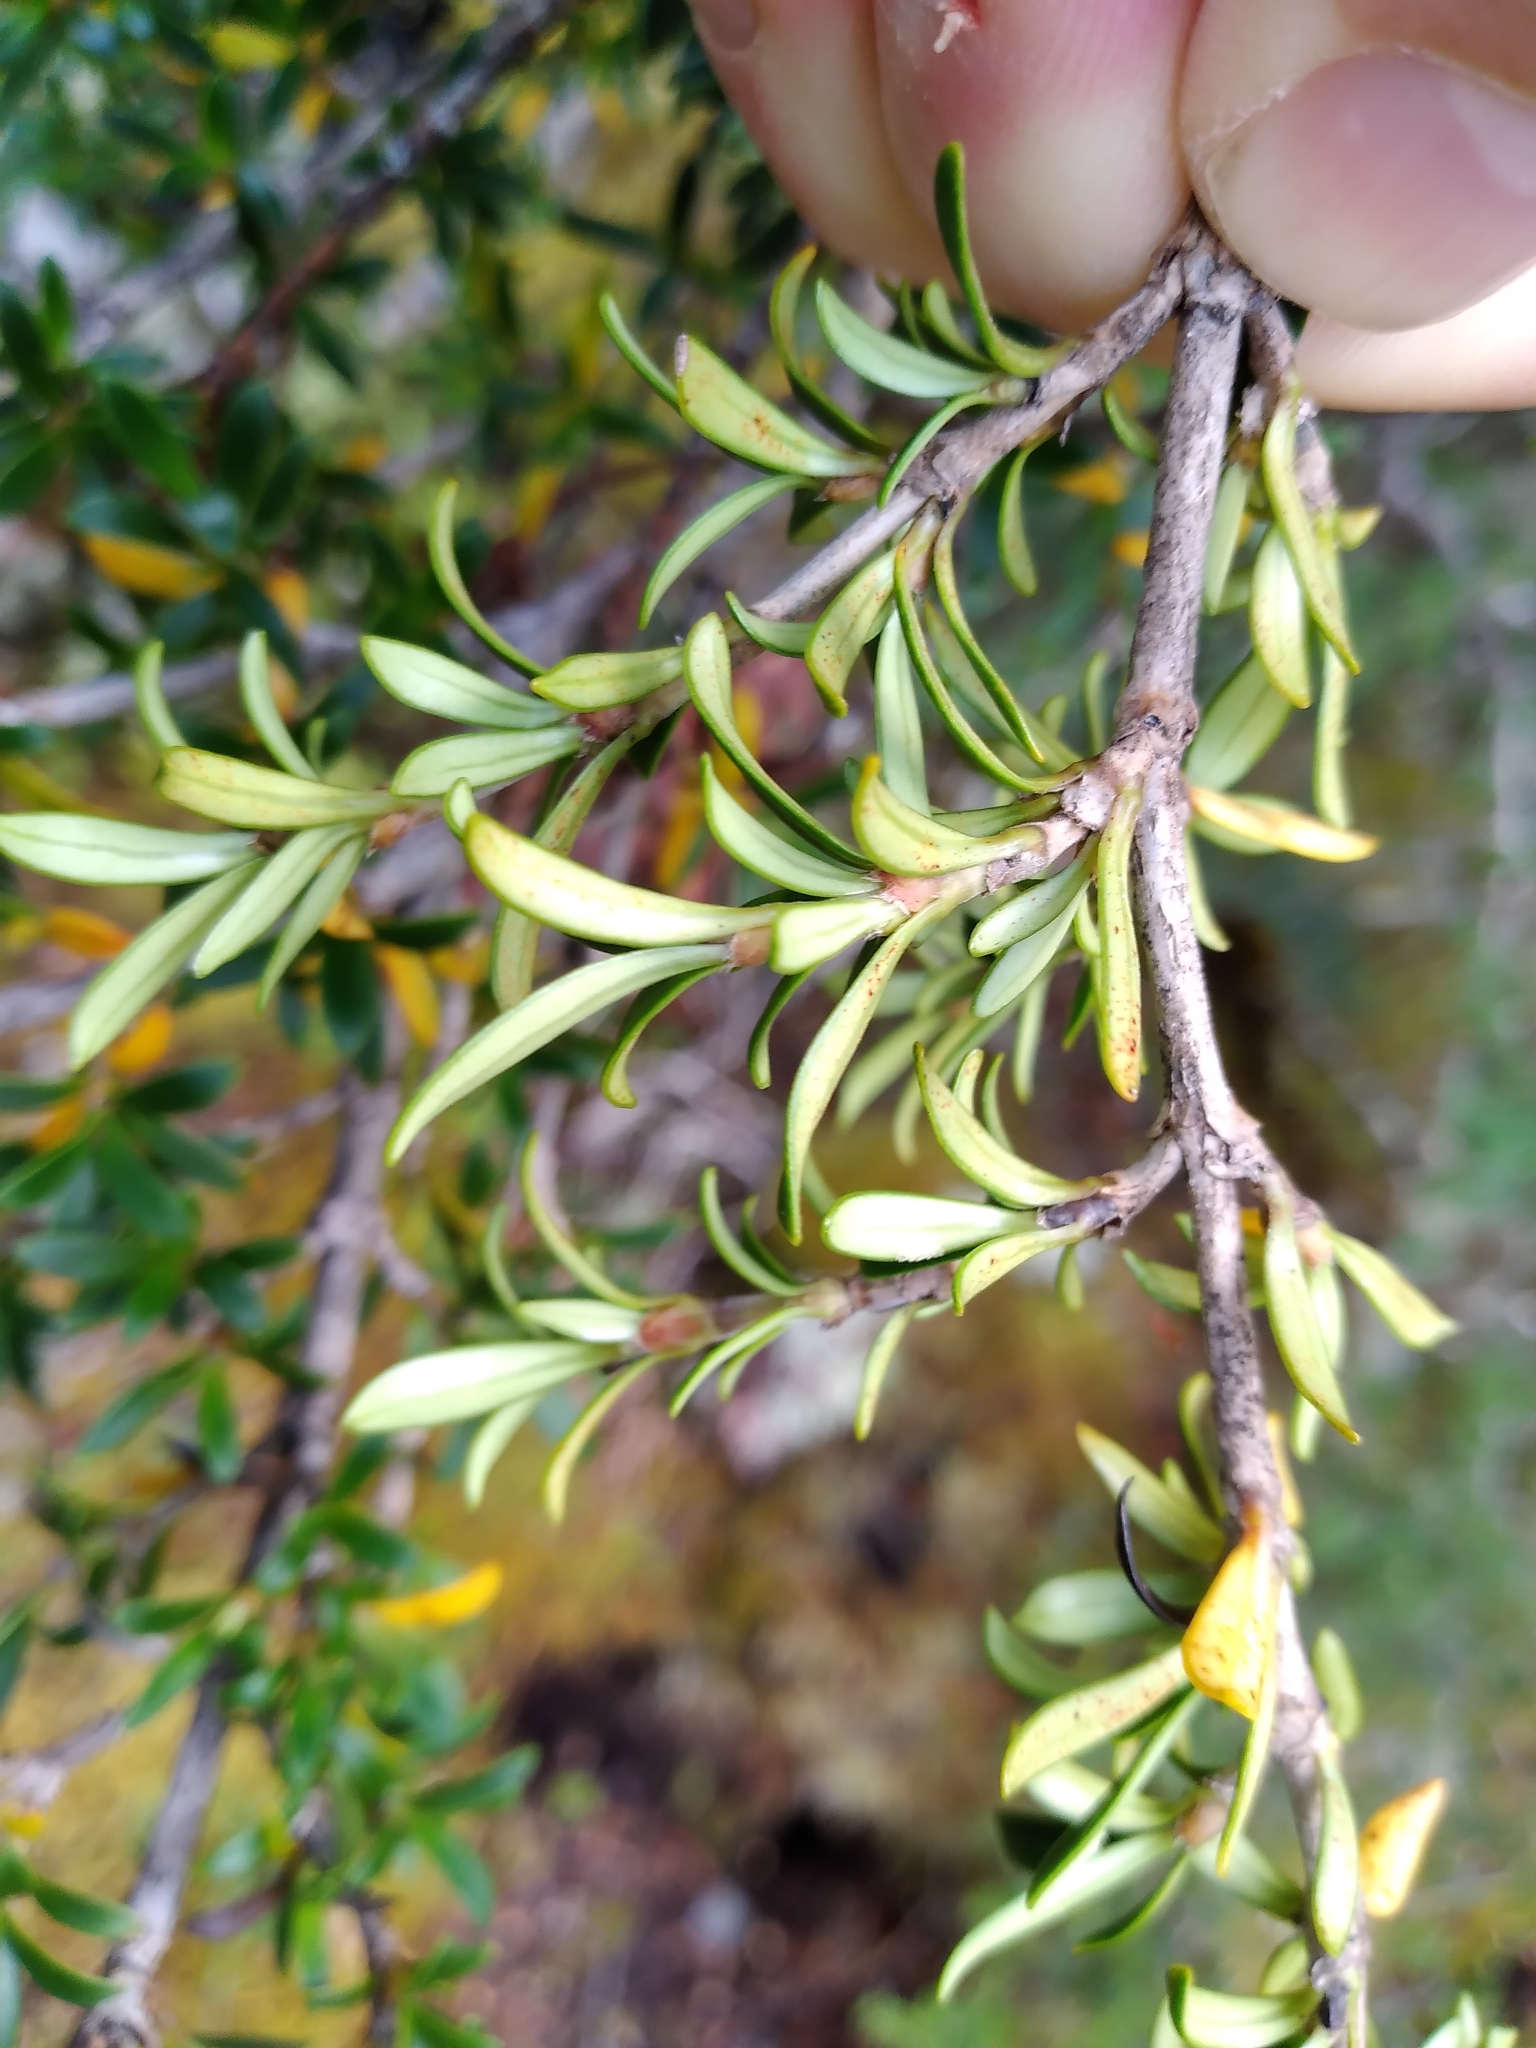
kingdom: Plantae
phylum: Tracheophyta
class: Magnoliopsida
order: Gentianales
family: Rubiaceae
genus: Coprosma
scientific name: Coprosma pseudocuneata
